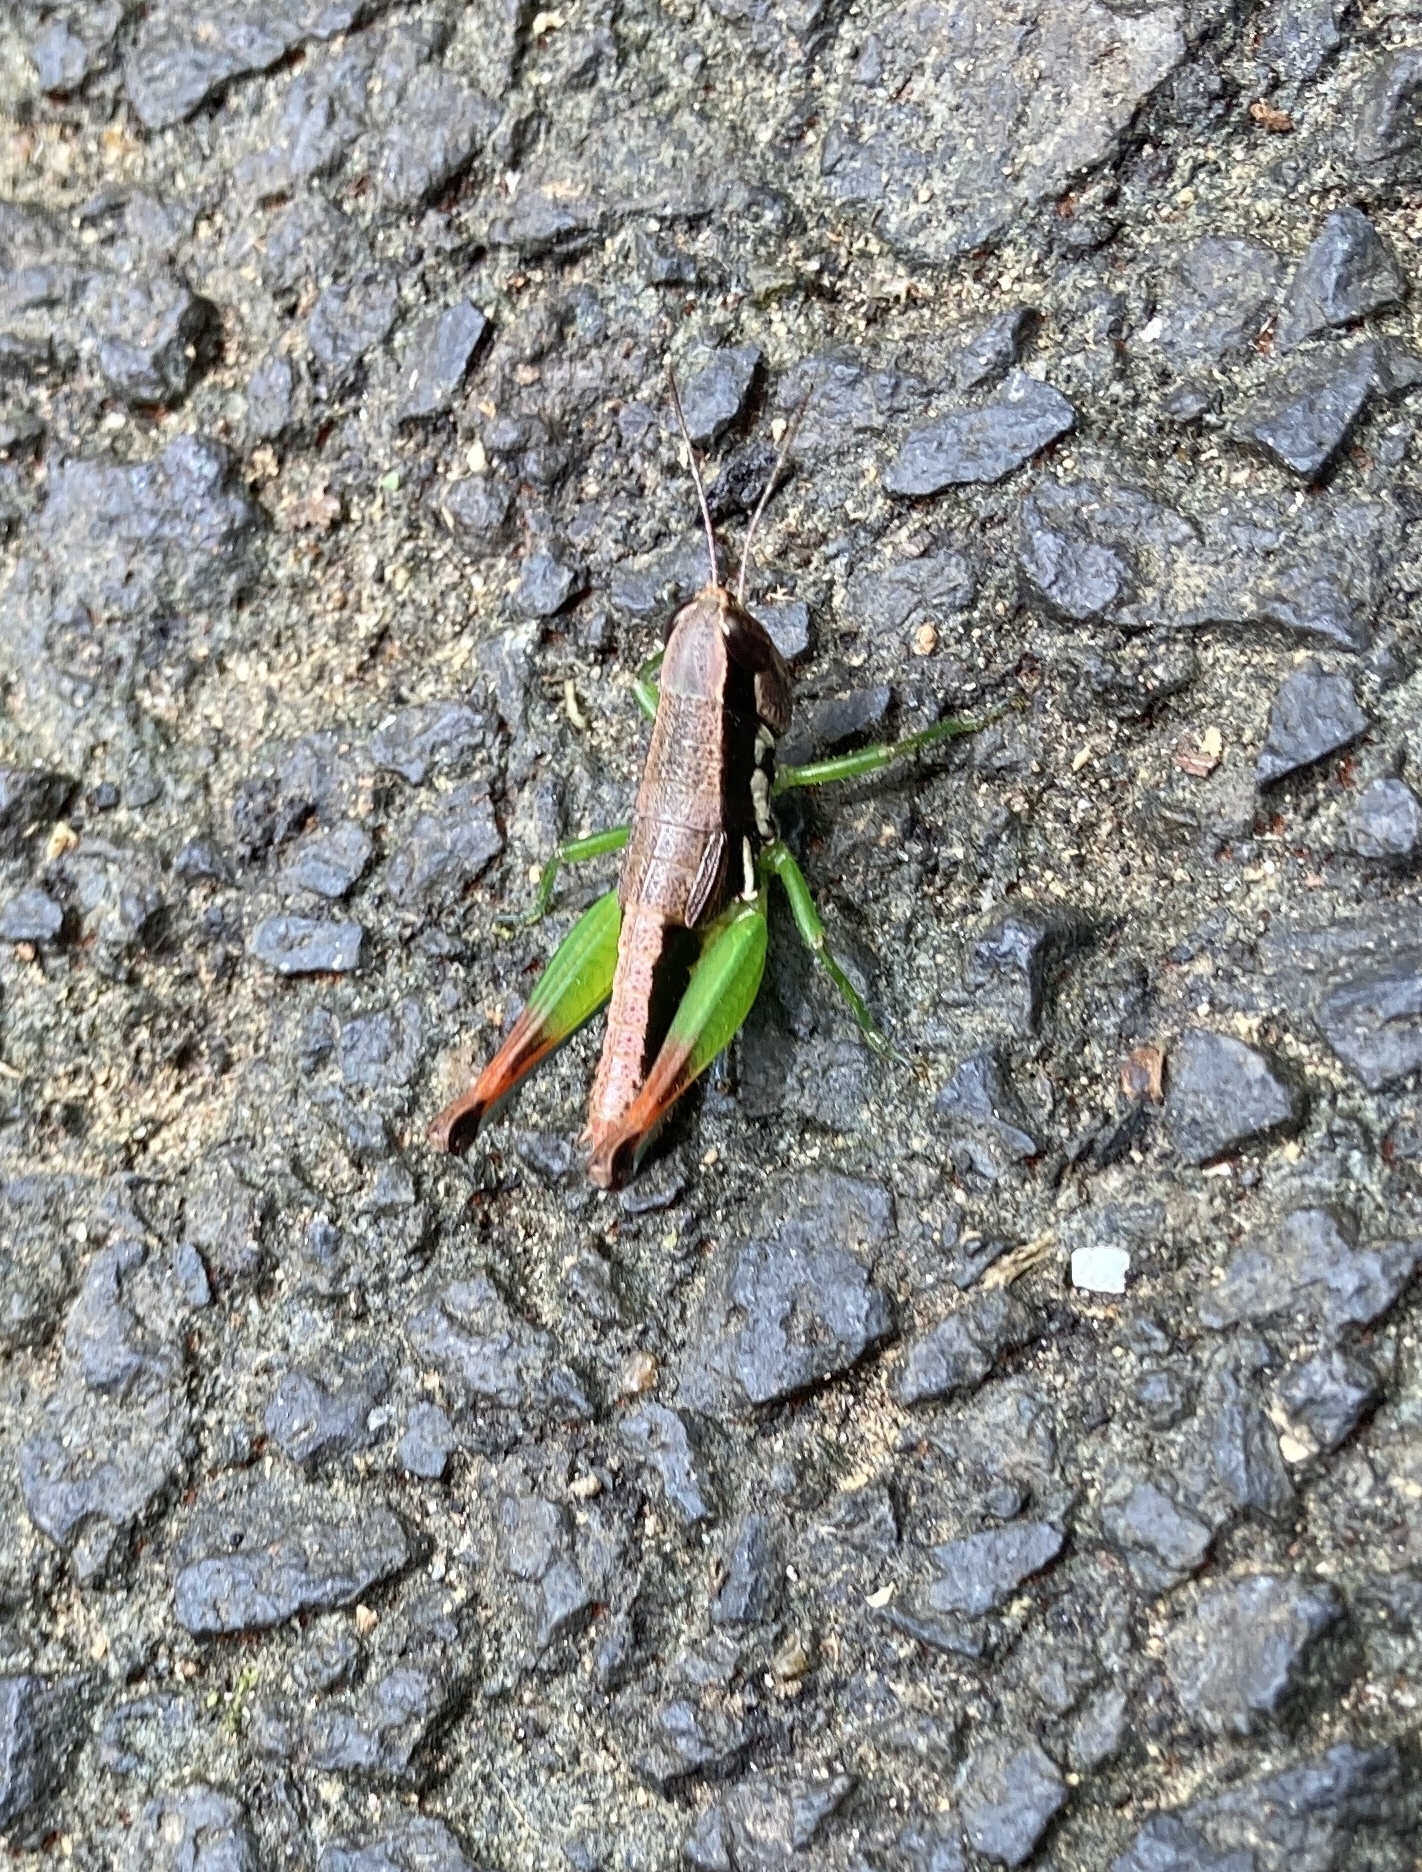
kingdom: Animalia
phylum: Arthropoda
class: Insecta
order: Orthoptera
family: Acrididae
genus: Methiola
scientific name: Methiola picta
